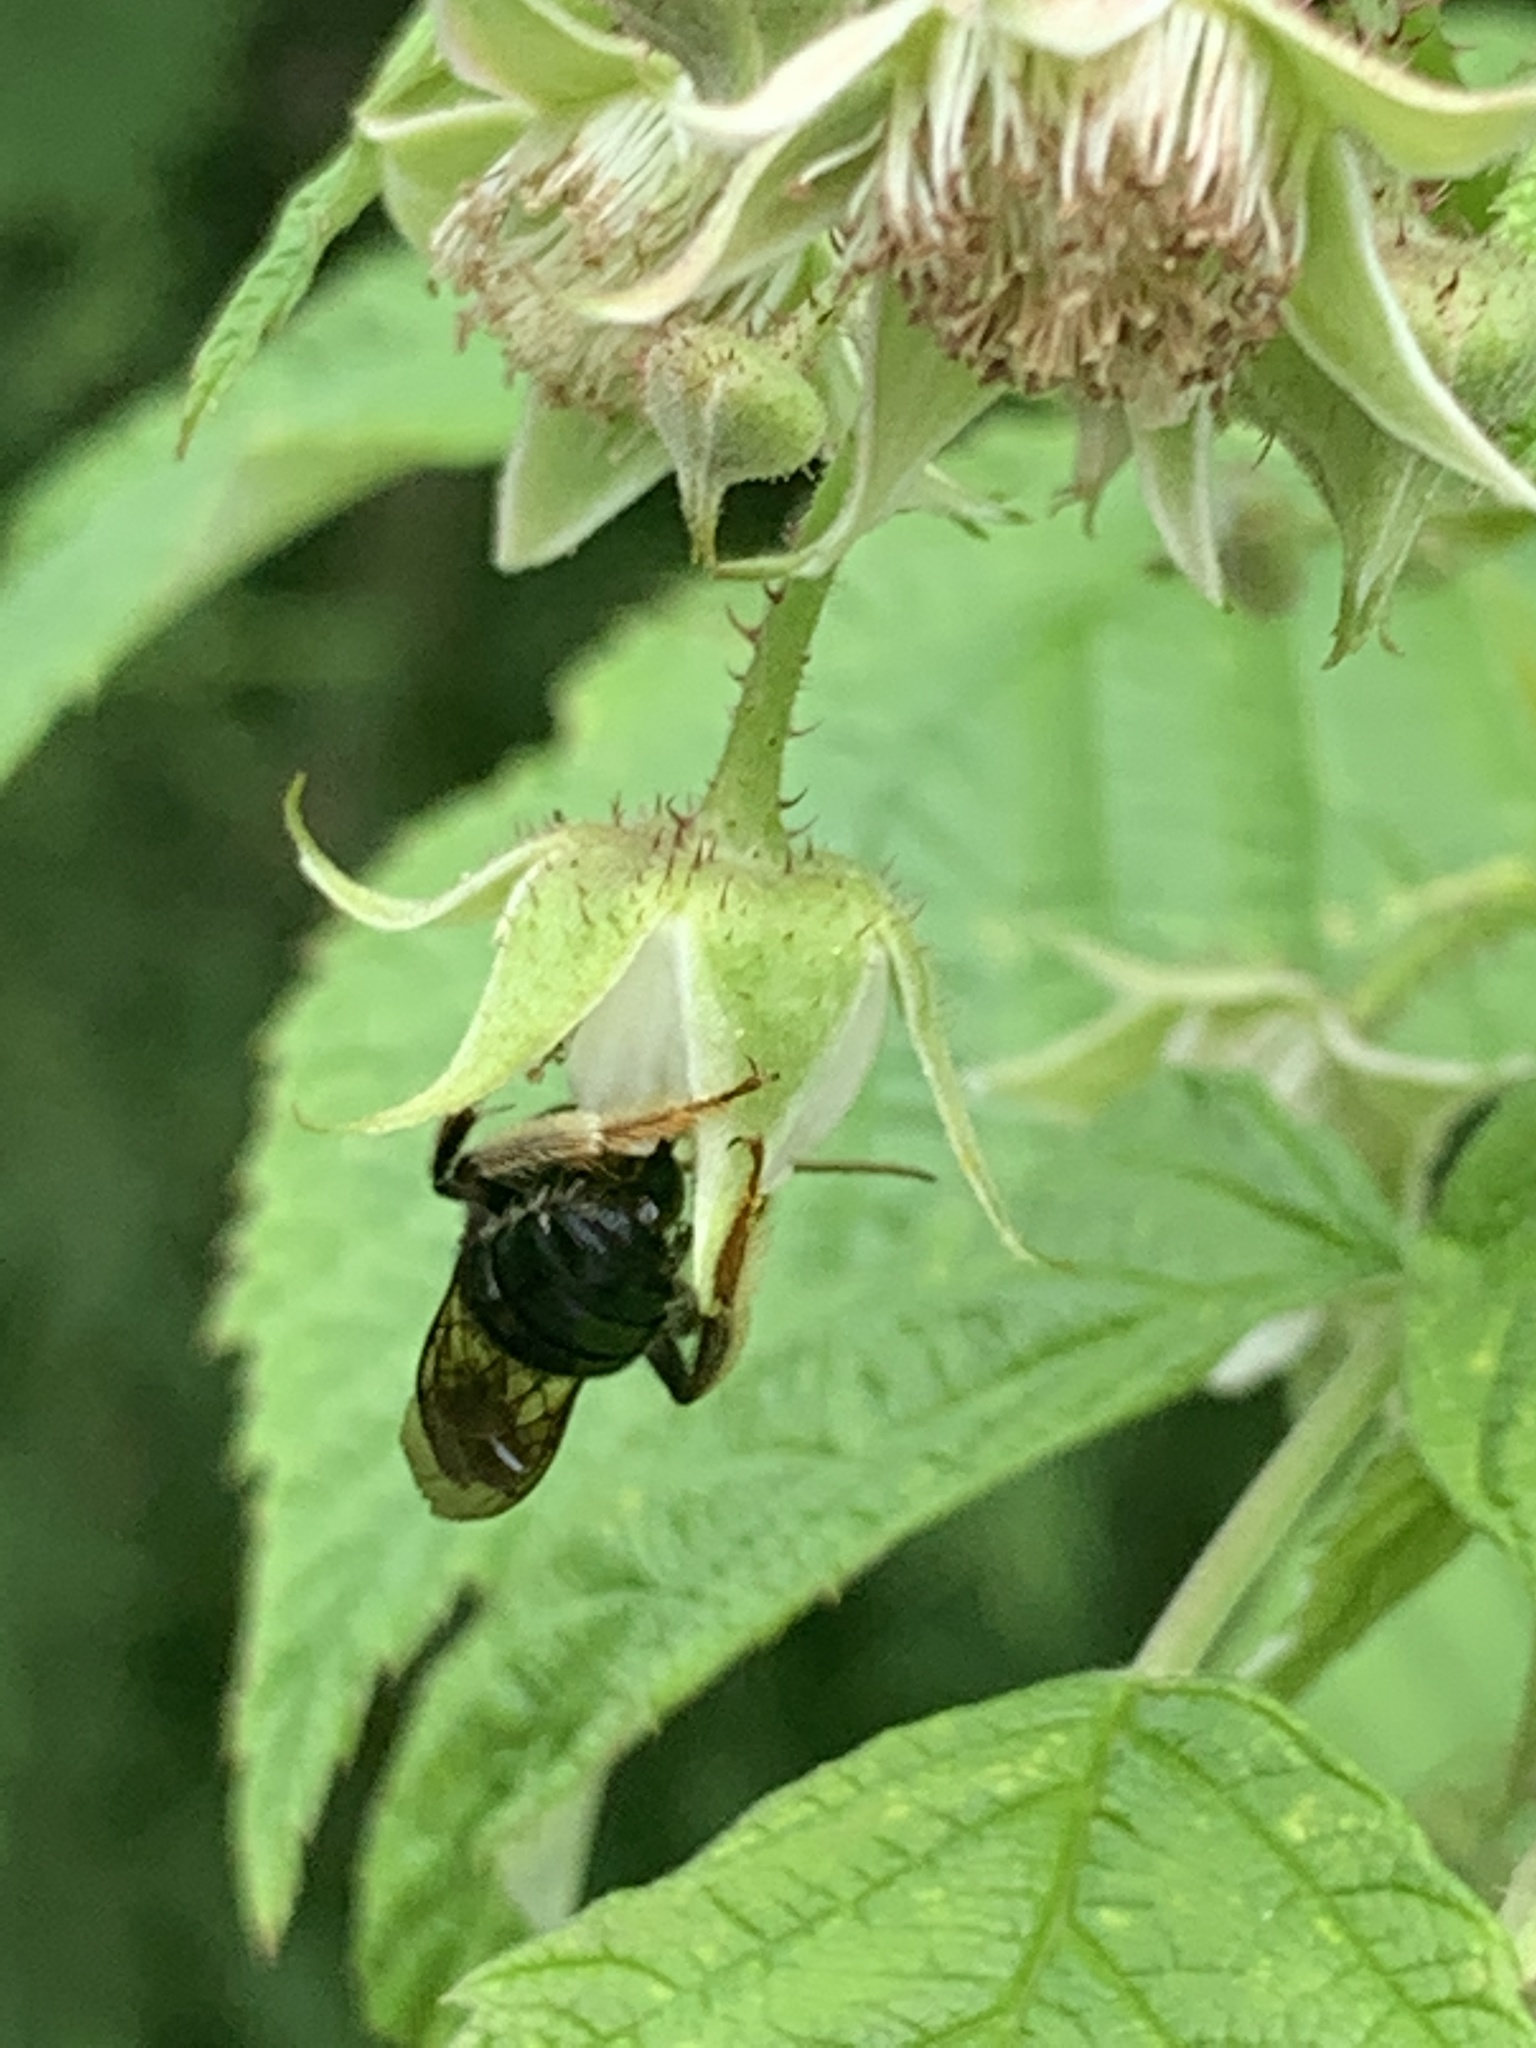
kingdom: Animalia
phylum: Arthropoda
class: Insecta
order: Hymenoptera
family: Apidae
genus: Melissodes
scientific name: Melissodes bimaculatus
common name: Two-spotted long-horned bee
